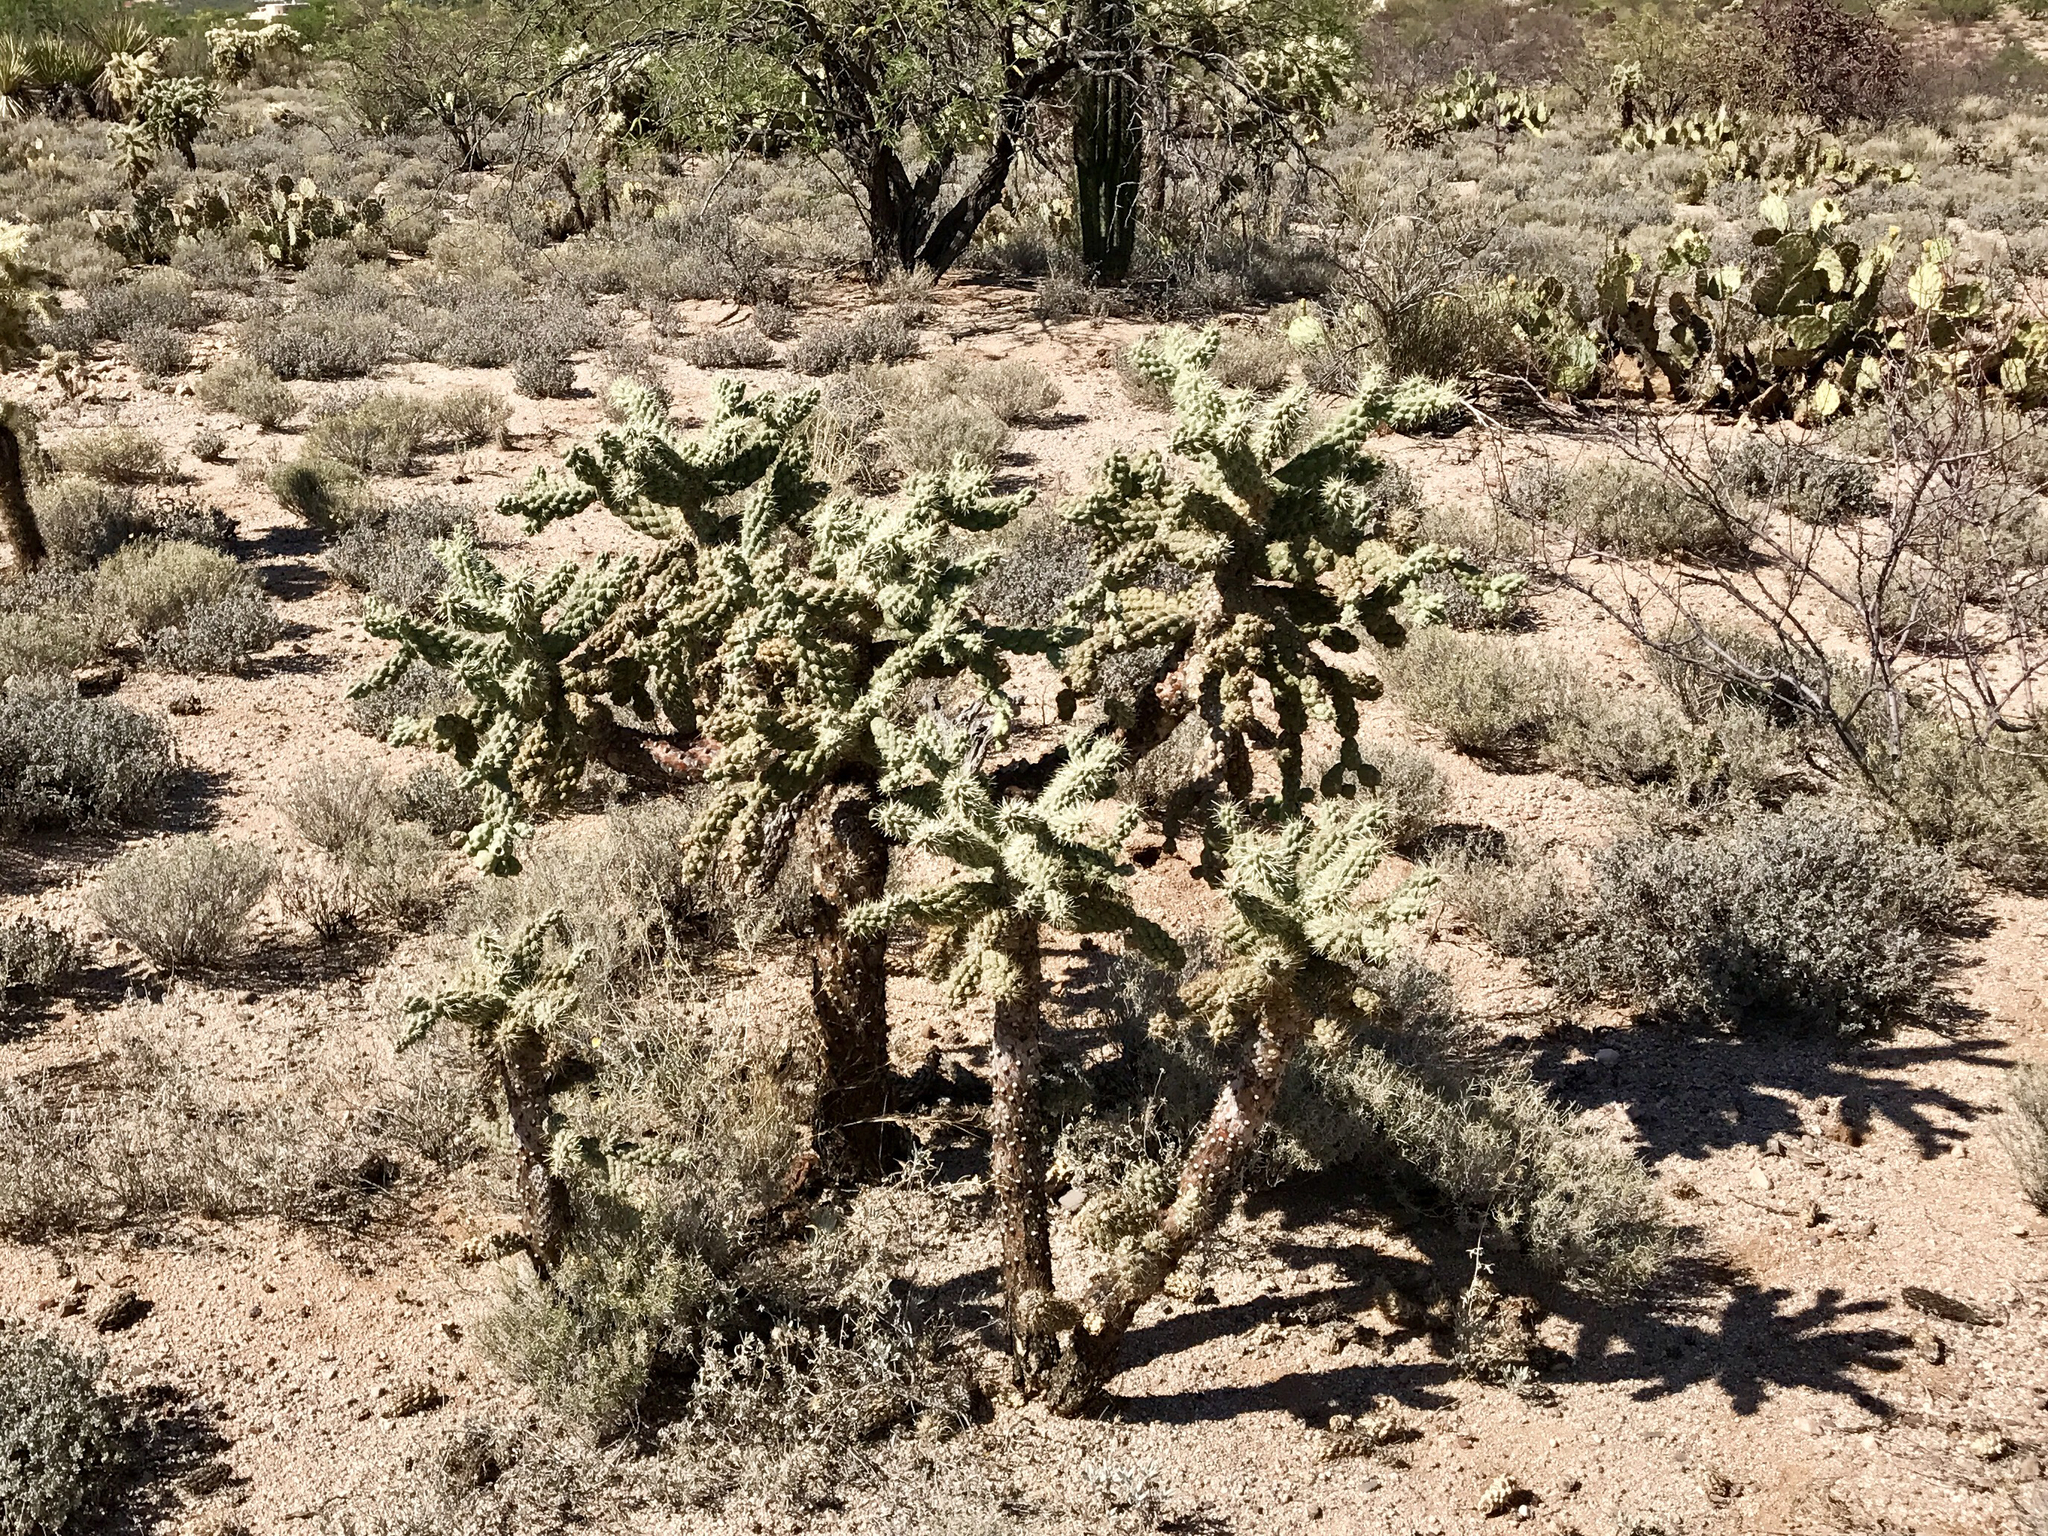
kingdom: Plantae
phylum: Tracheophyta
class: Magnoliopsida
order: Caryophyllales
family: Cactaceae
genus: Cylindropuntia
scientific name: Cylindropuntia fulgida
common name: Jumping cholla
